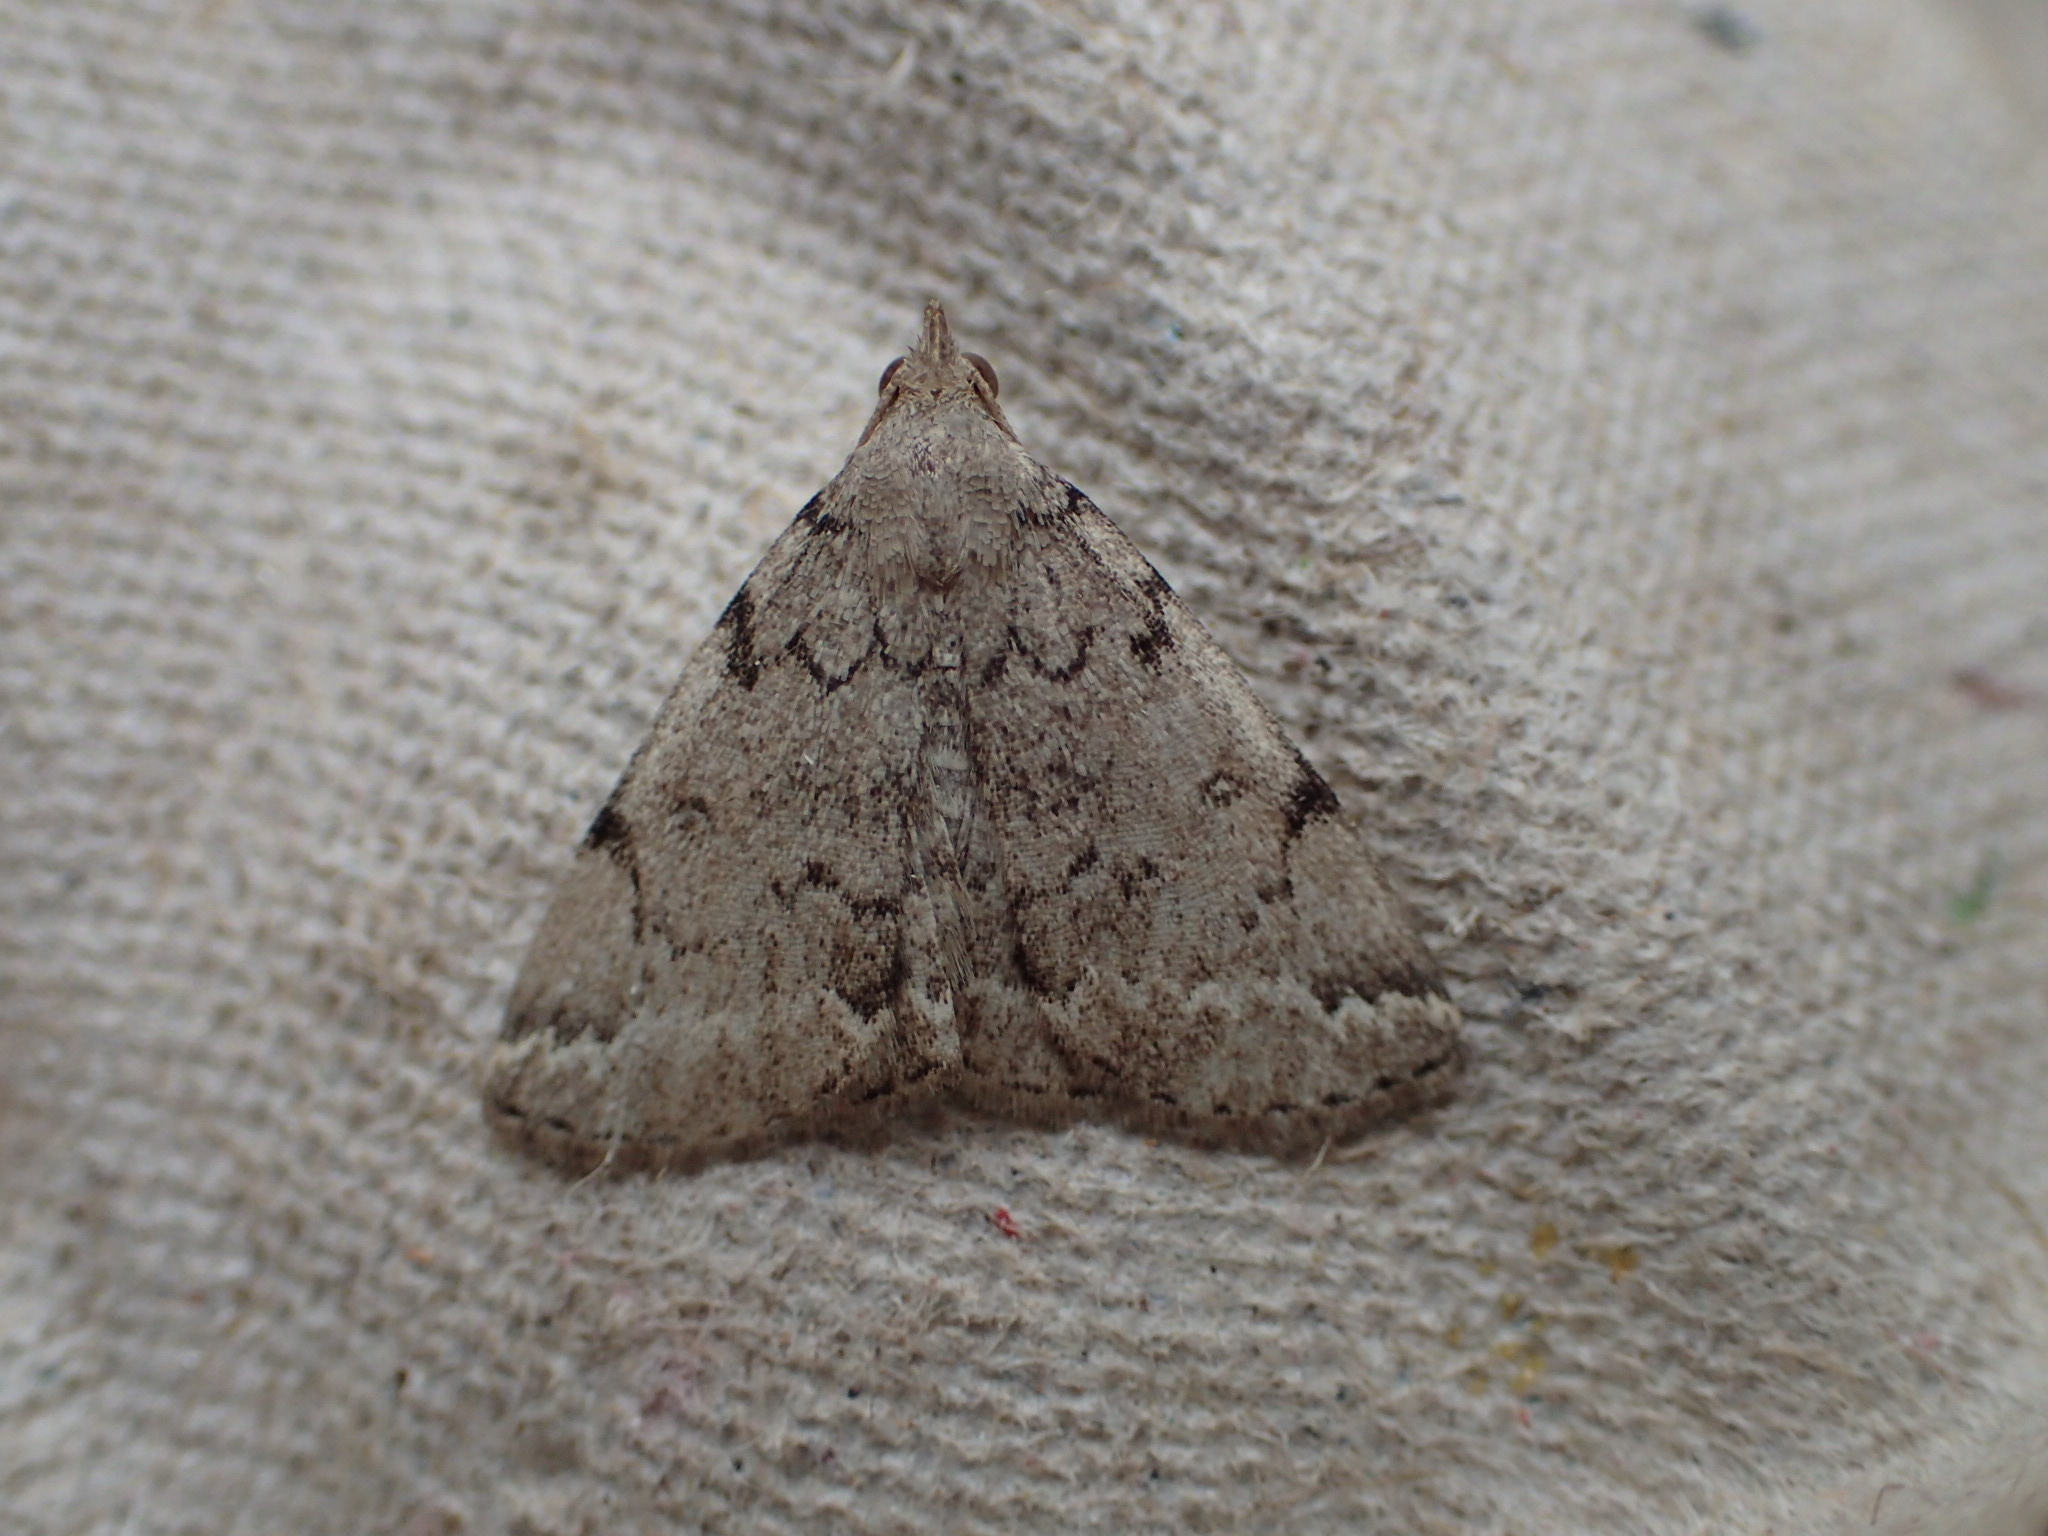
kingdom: Animalia
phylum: Arthropoda
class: Insecta
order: Lepidoptera
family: Erebidae
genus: Zanclognatha
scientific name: Zanclognatha theralis
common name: Flagged fan-foot
